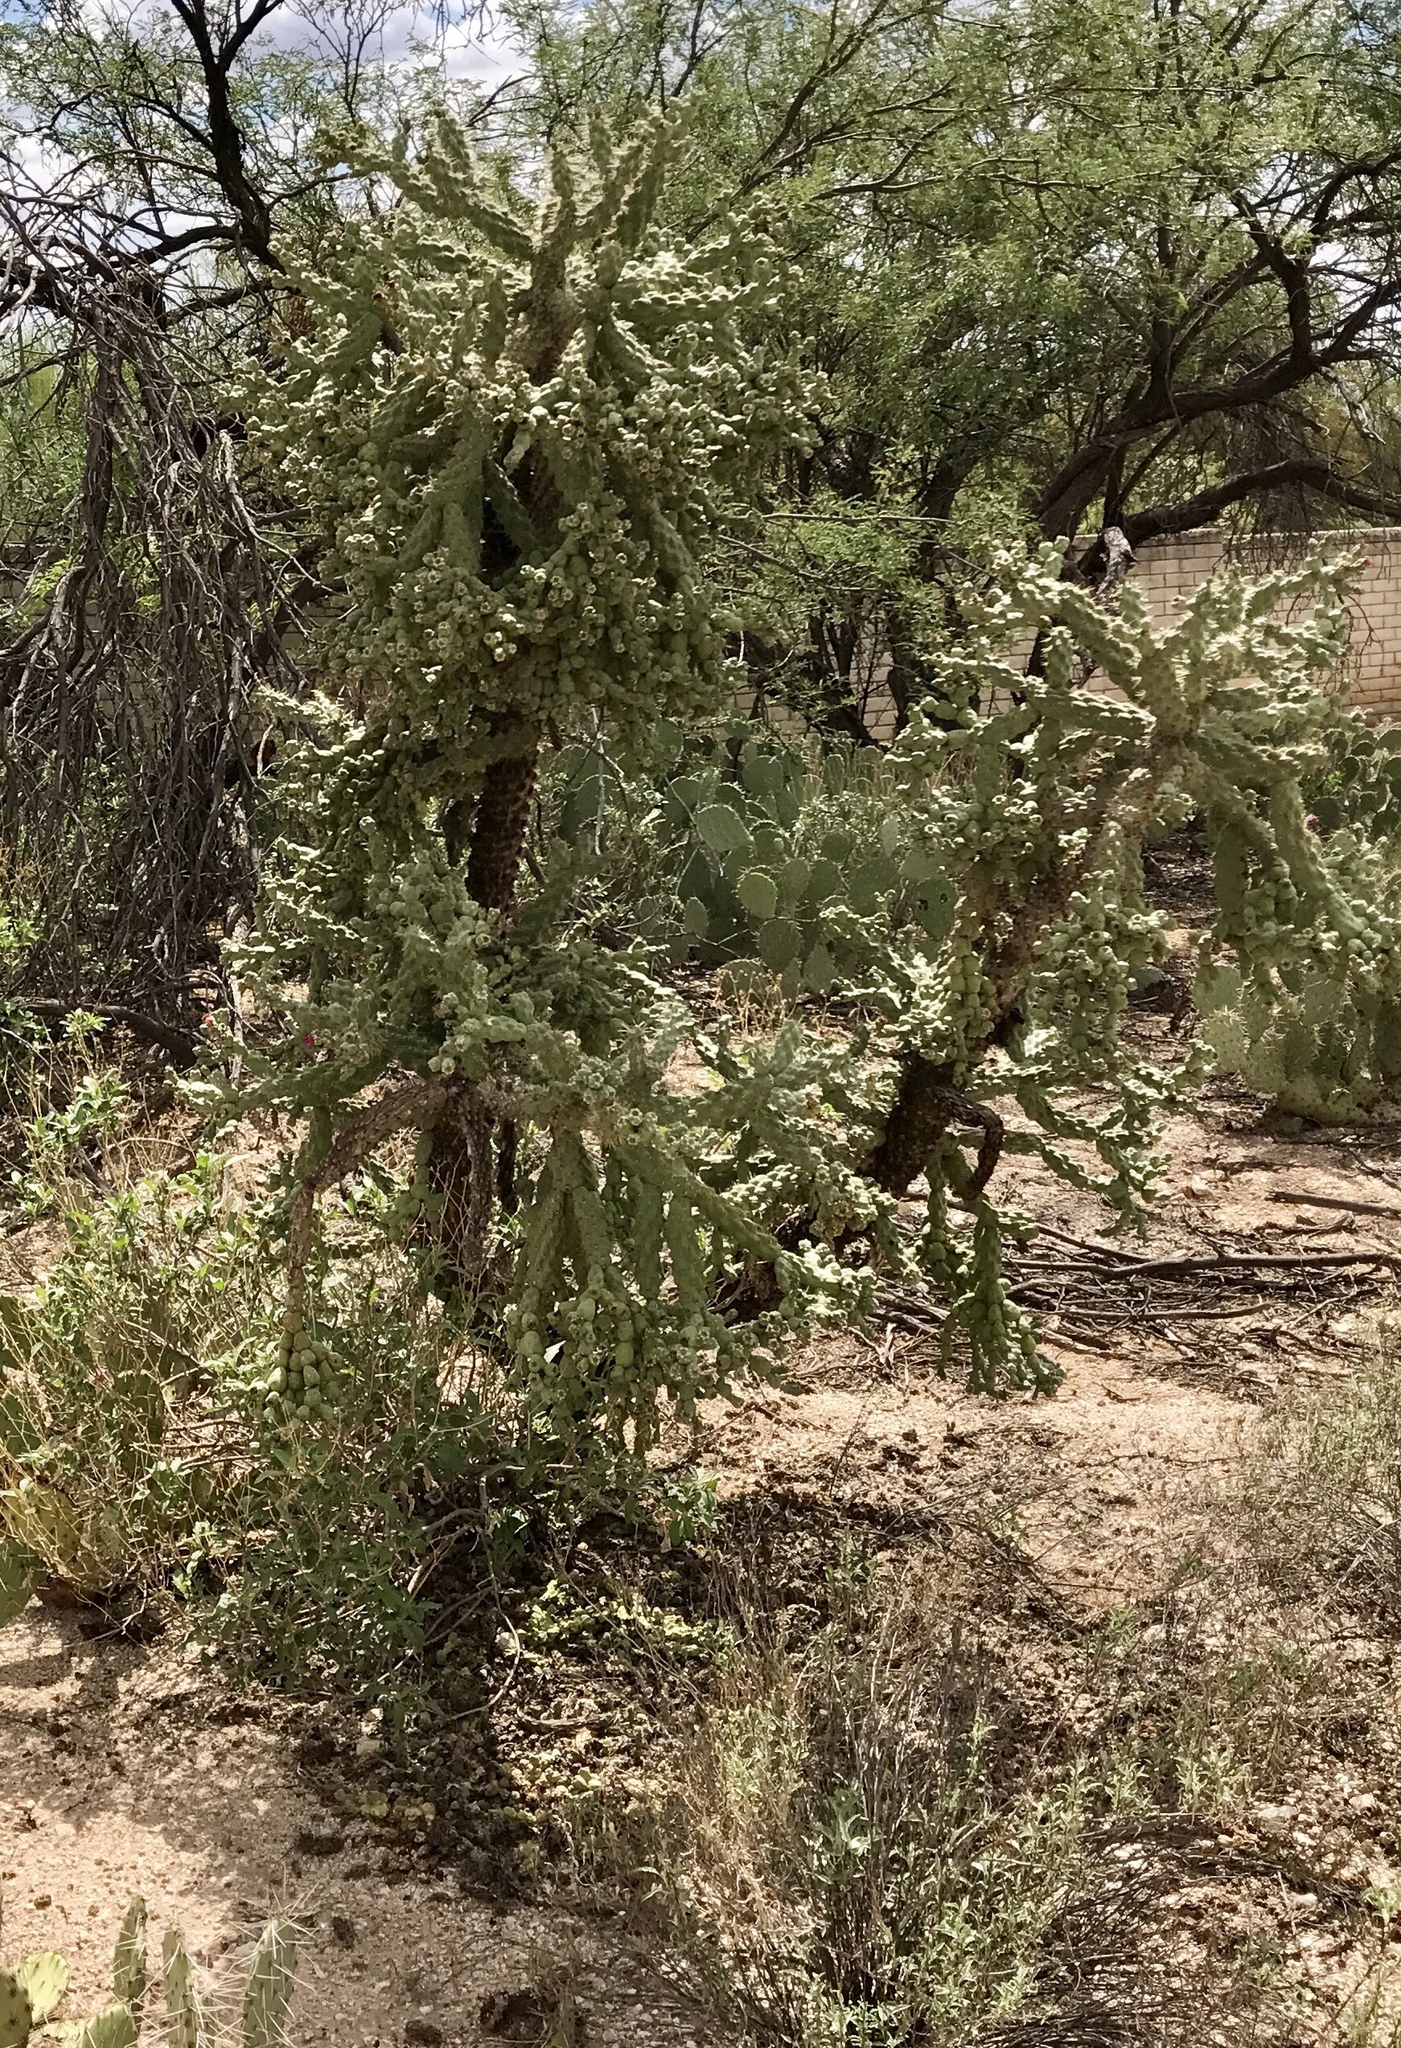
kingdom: Plantae
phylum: Tracheophyta
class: Magnoliopsida
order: Caryophyllales
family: Cactaceae
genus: Cylindropuntia
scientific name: Cylindropuntia fulgida
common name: Jumping cholla
